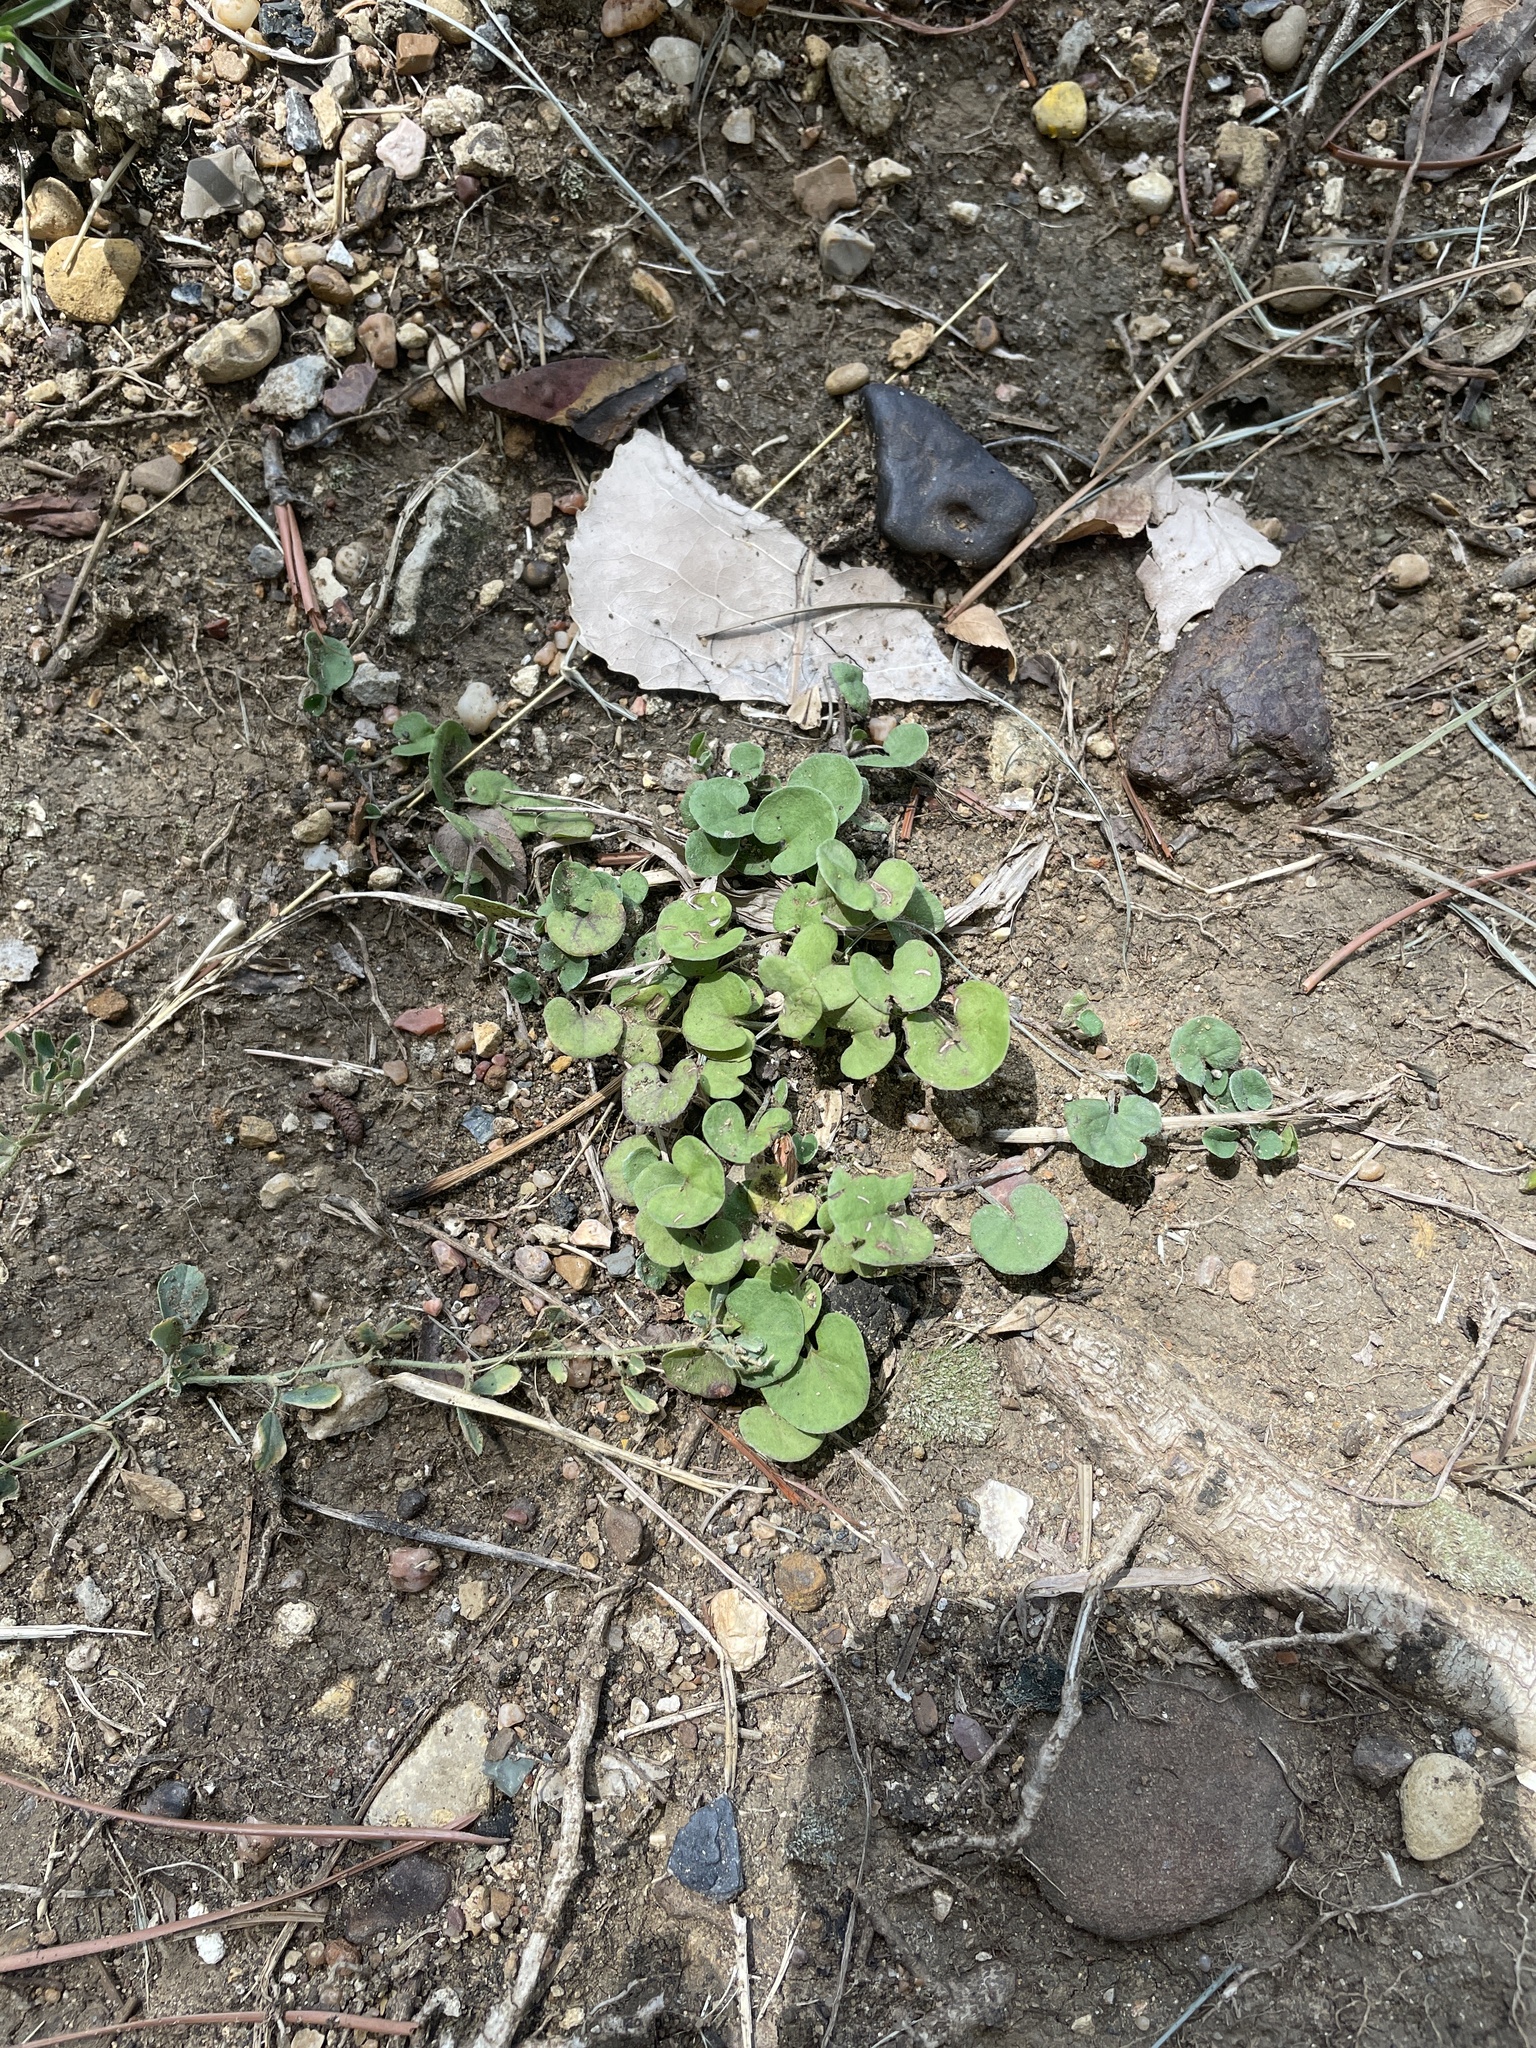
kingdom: Plantae
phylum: Tracheophyta
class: Magnoliopsida
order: Solanales
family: Convolvulaceae
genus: Dichondra
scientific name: Dichondra carolinensis
